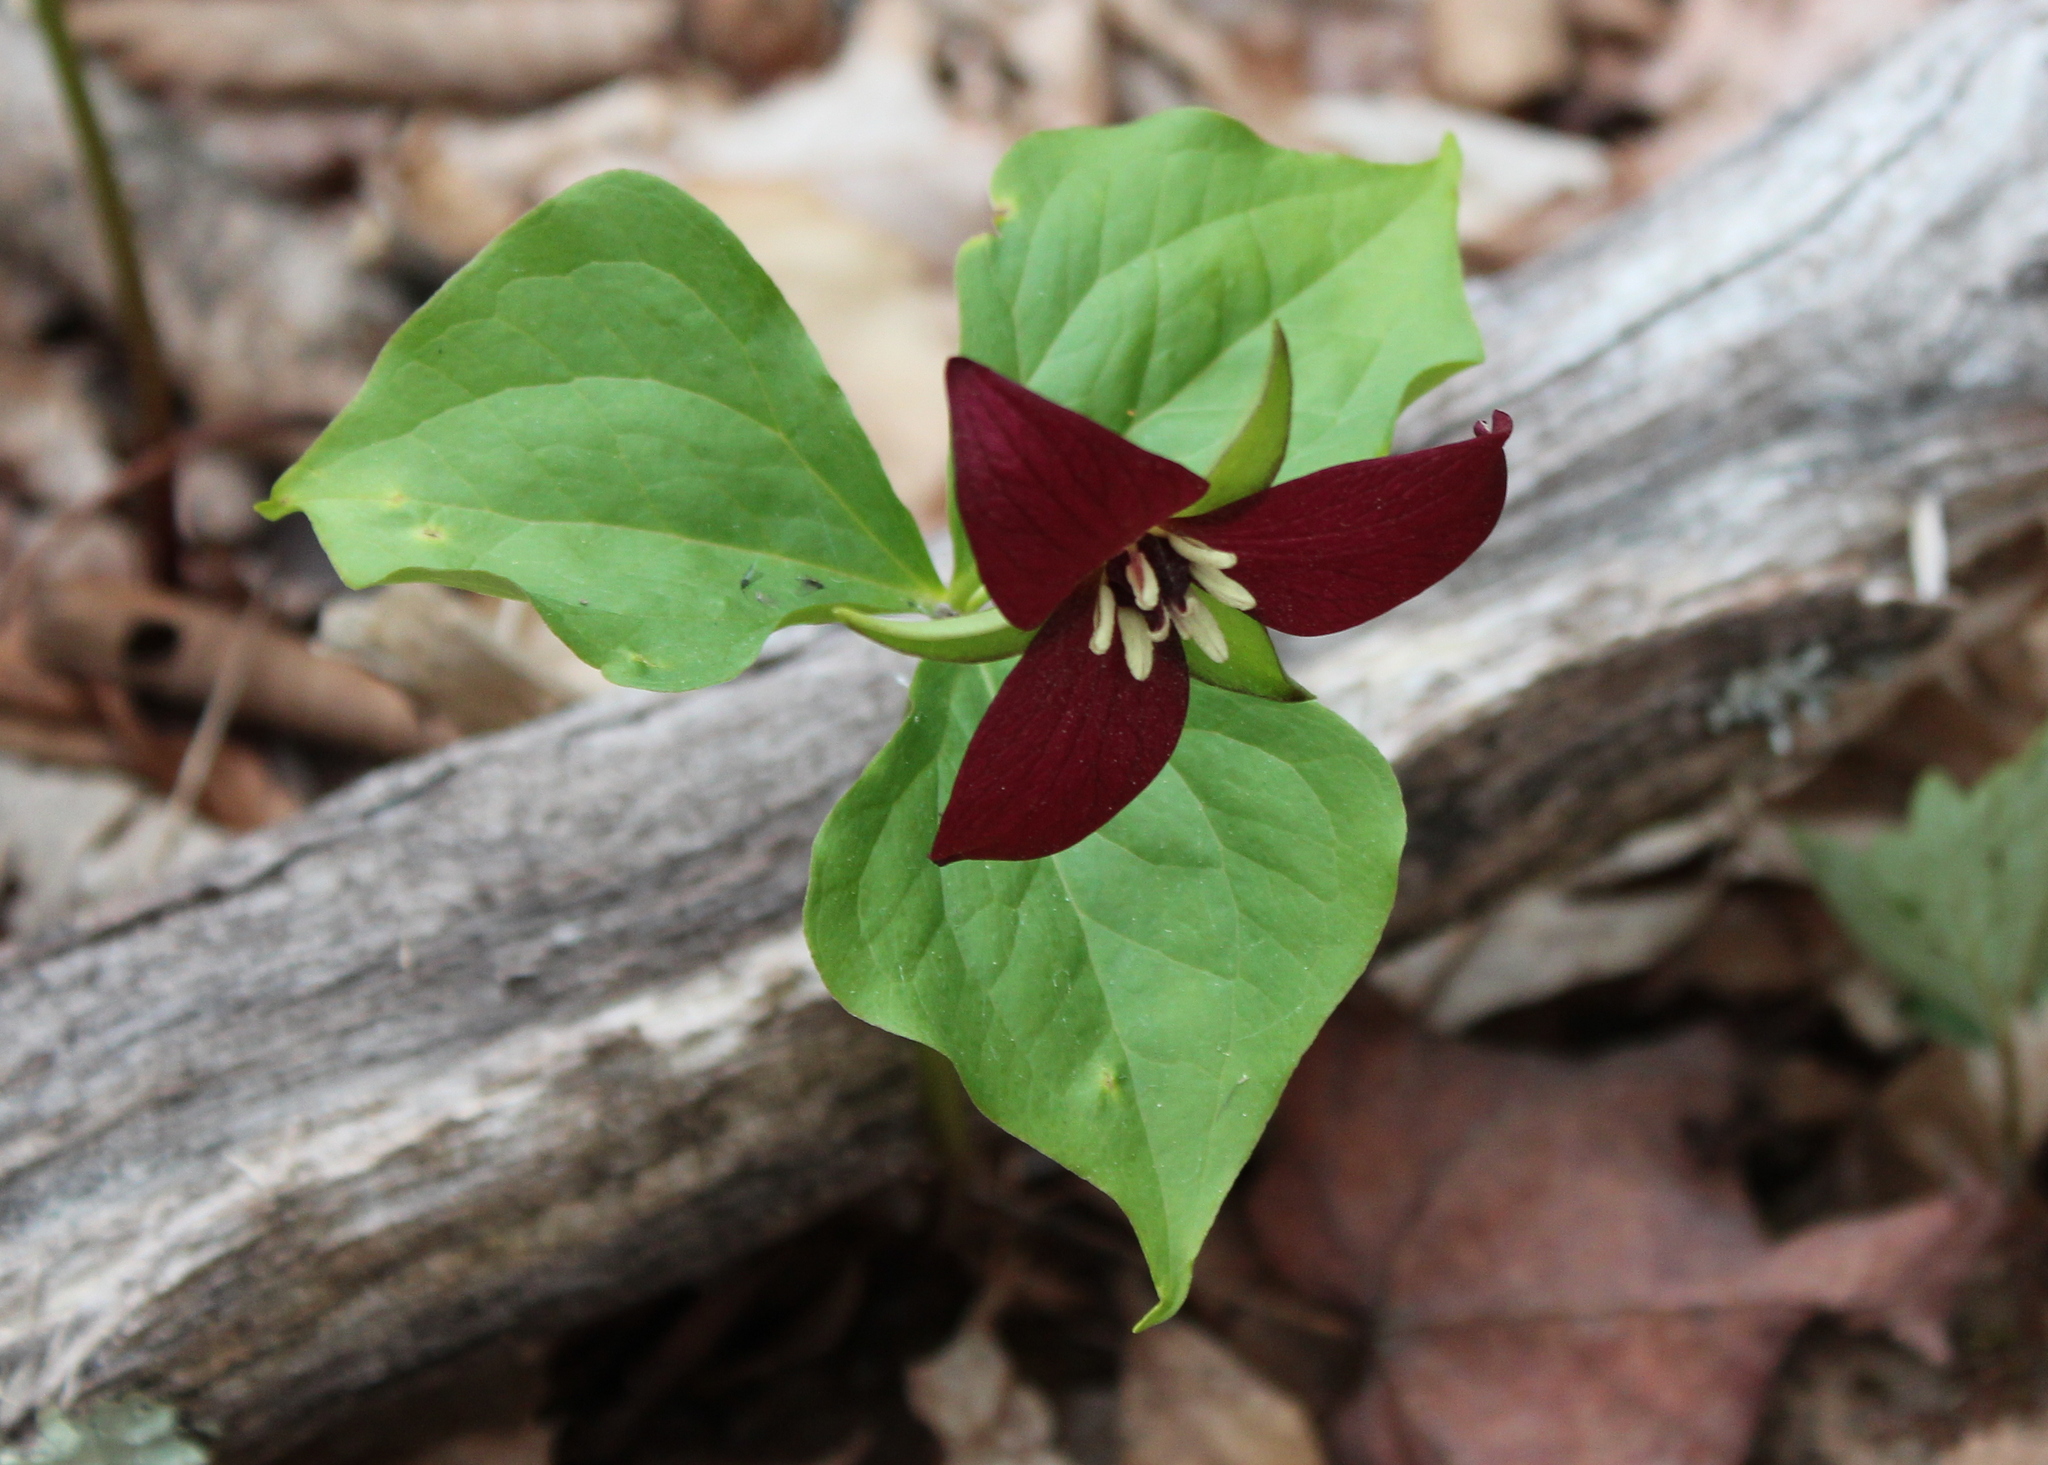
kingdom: Plantae
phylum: Tracheophyta
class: Liliopsida
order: Liliales
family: Melanthiaceae
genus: Trillium
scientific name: Trillium erectum
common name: Purple trillium
